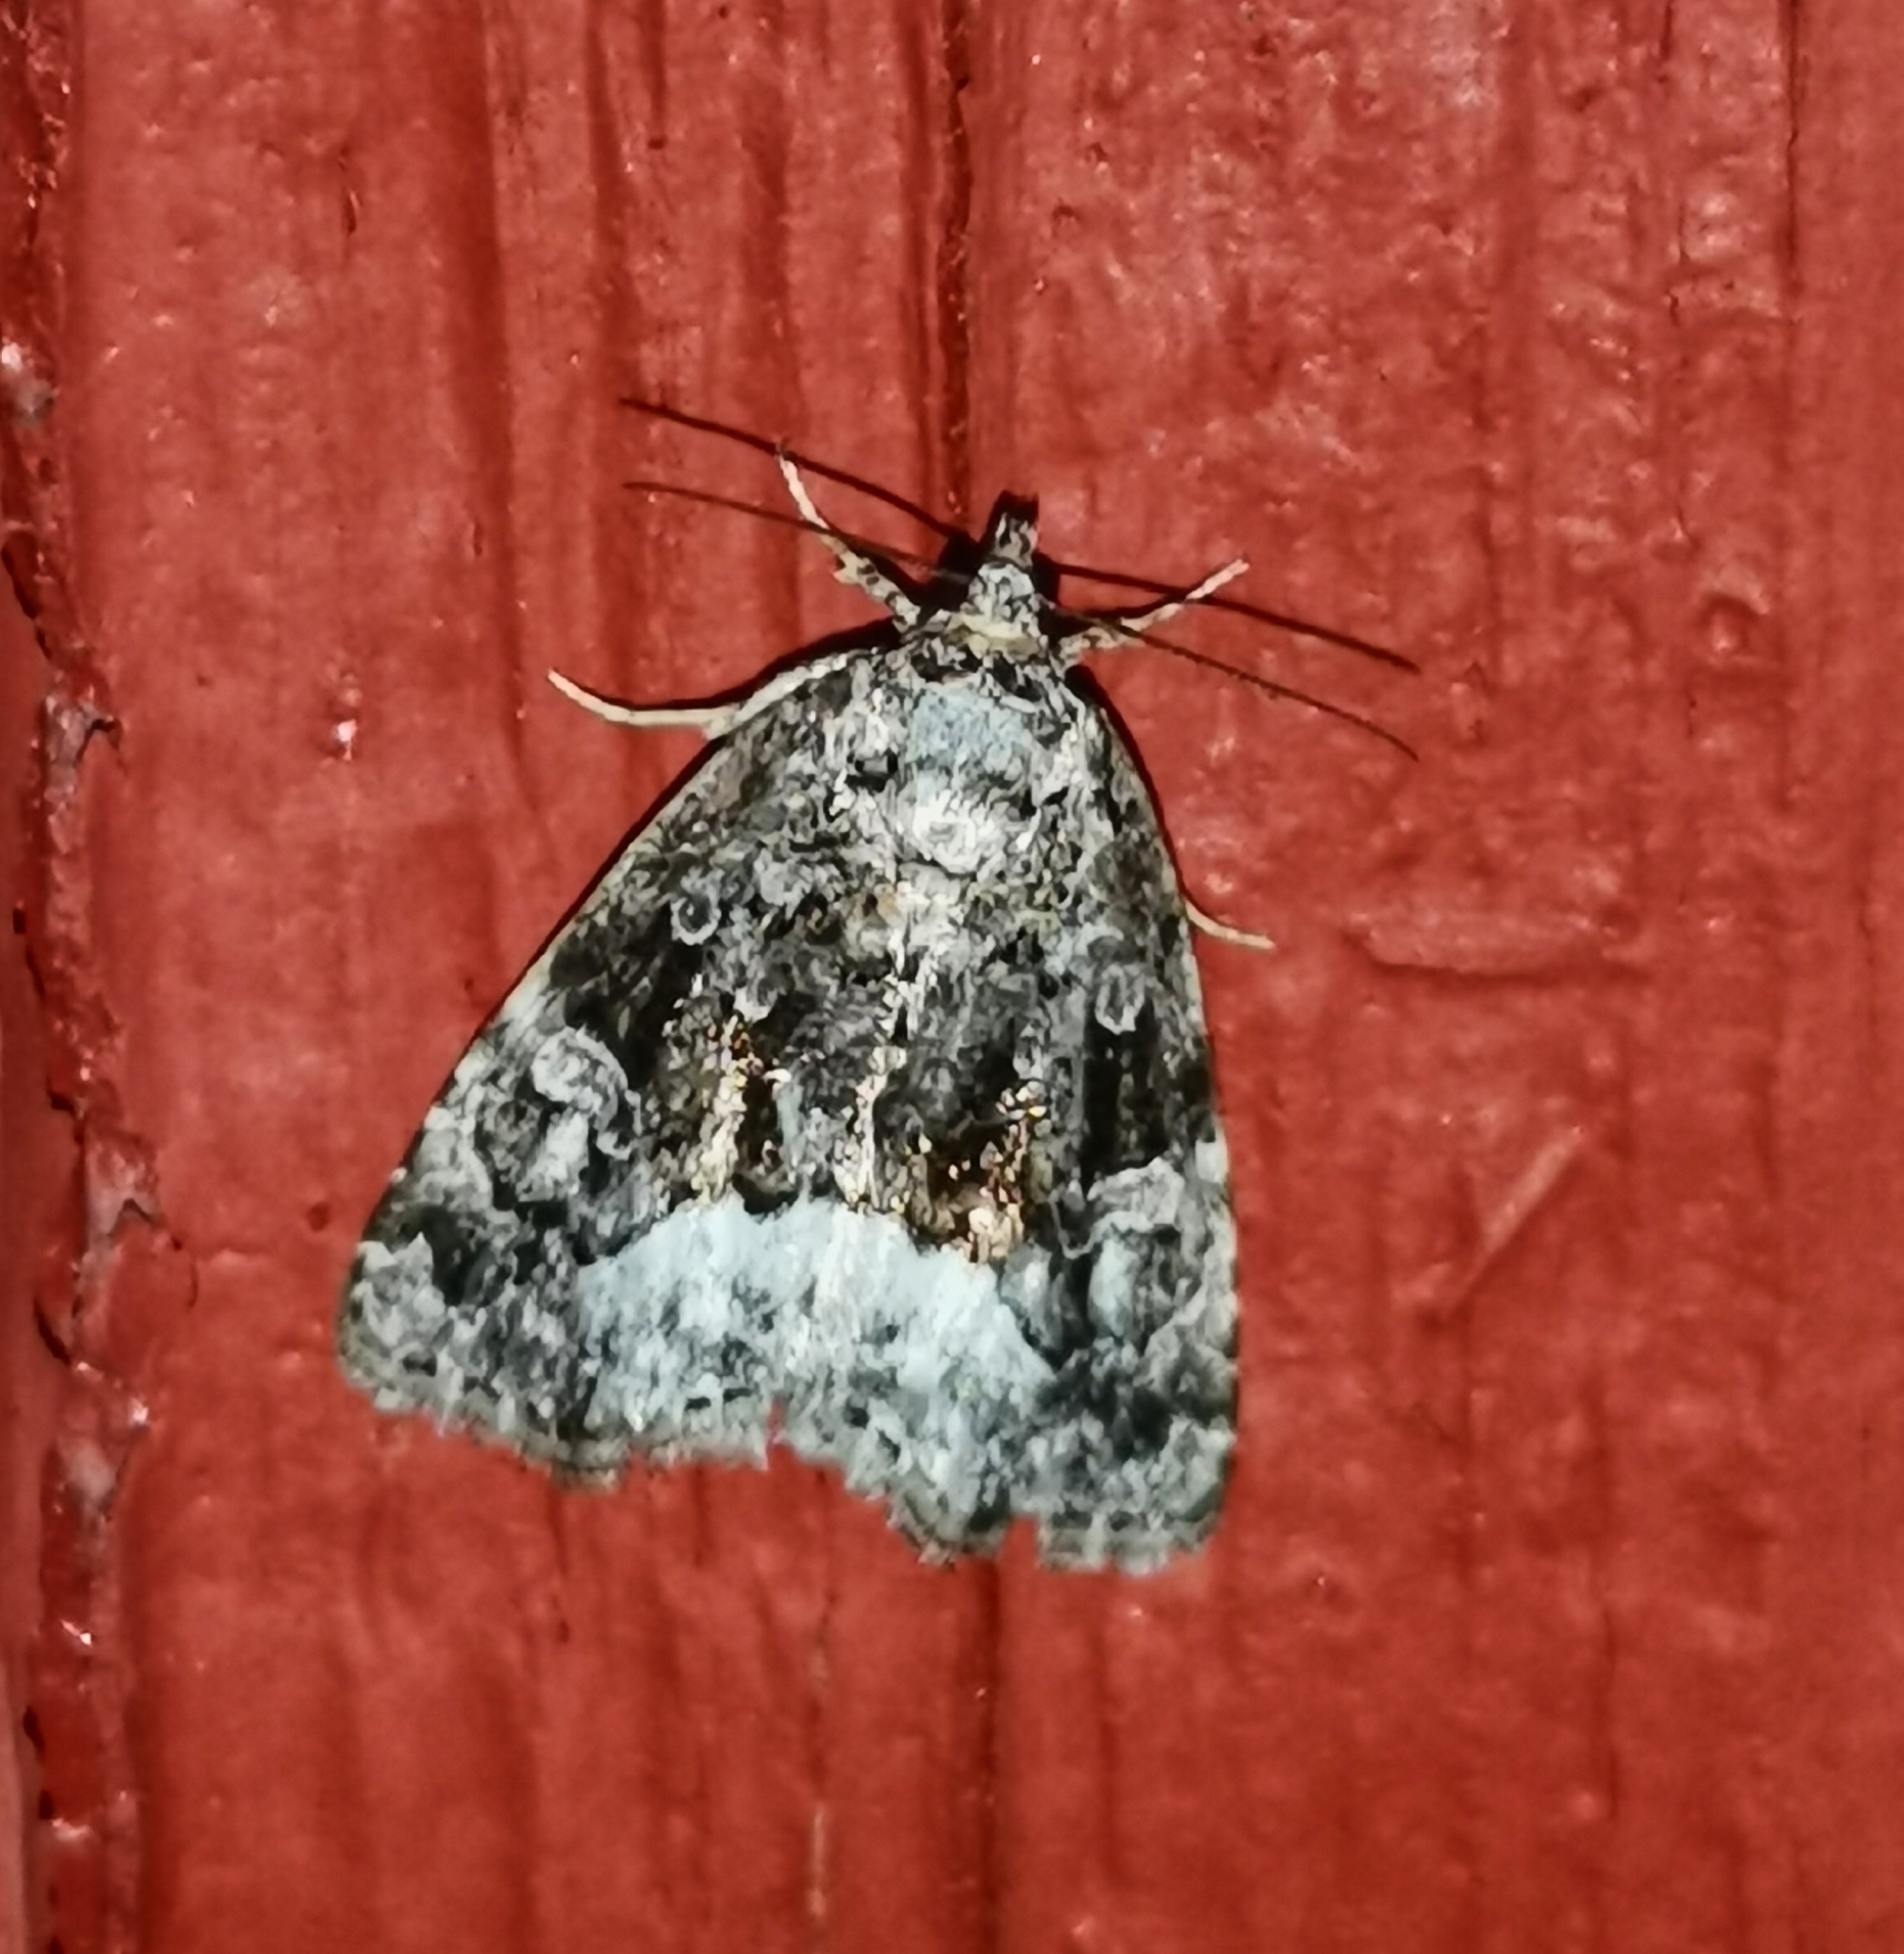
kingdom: Animalia
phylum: Arthropoda
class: Insecta
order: Lepidoptera
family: Noctuidae
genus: Deltote
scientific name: Deltote pygarga
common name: Marbled white spot
